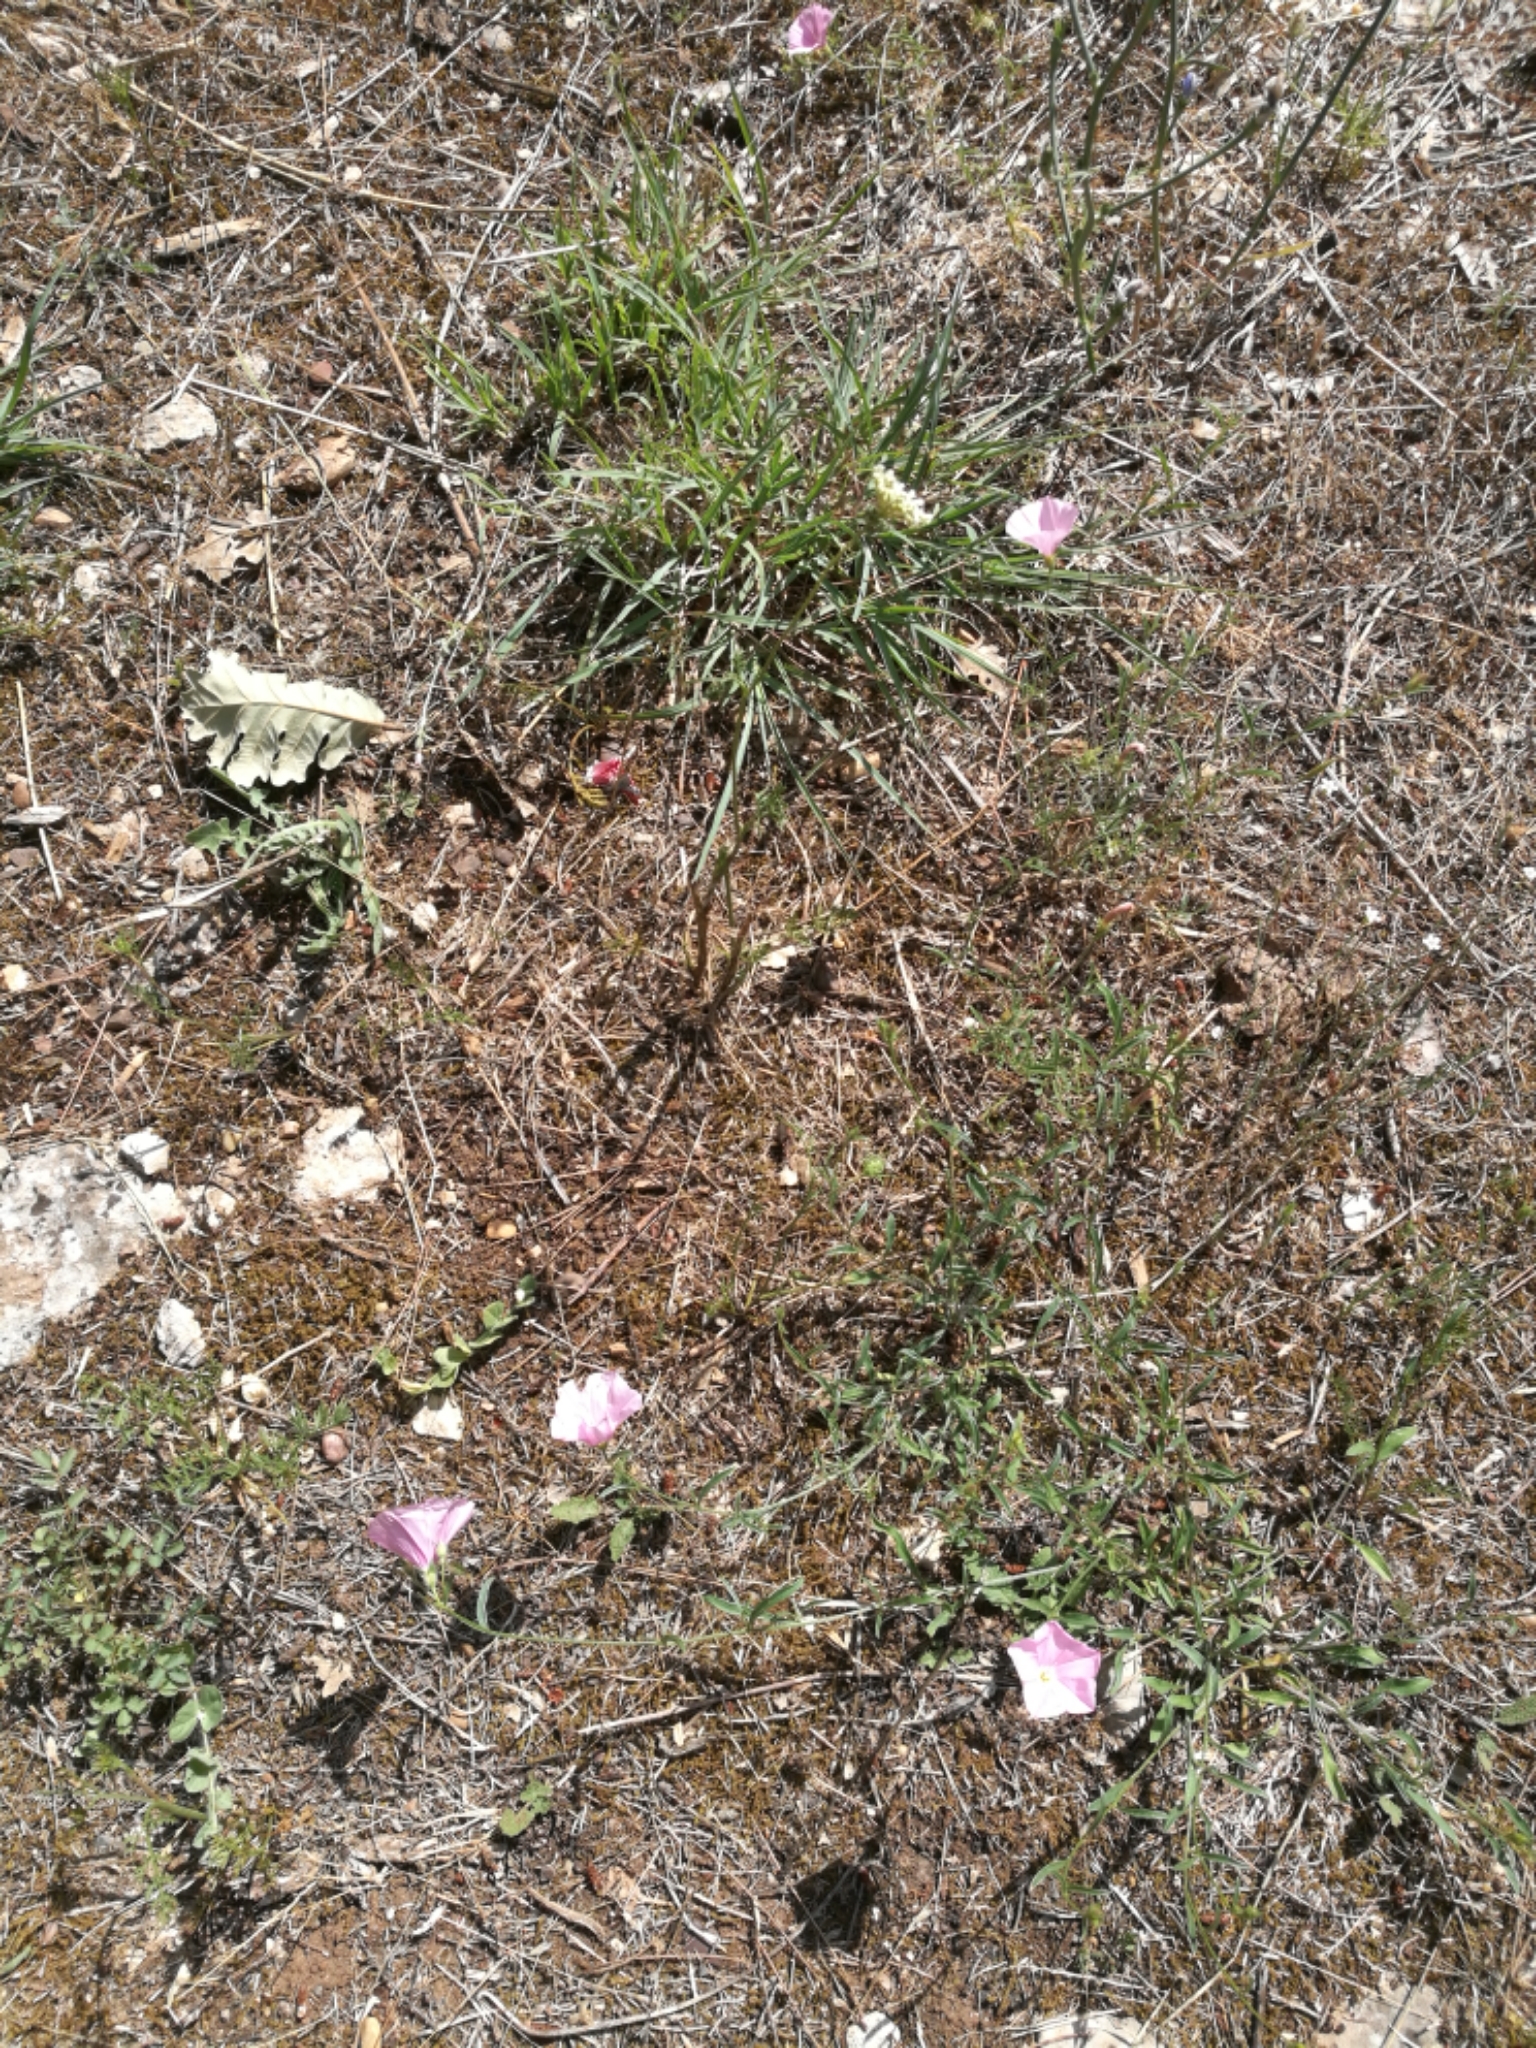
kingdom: Plantae
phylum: Tracheophyta
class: Magnoliopsida
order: Solanales
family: Convolvulaceae
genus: Convolvulus
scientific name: Convolvulus cantabrica
